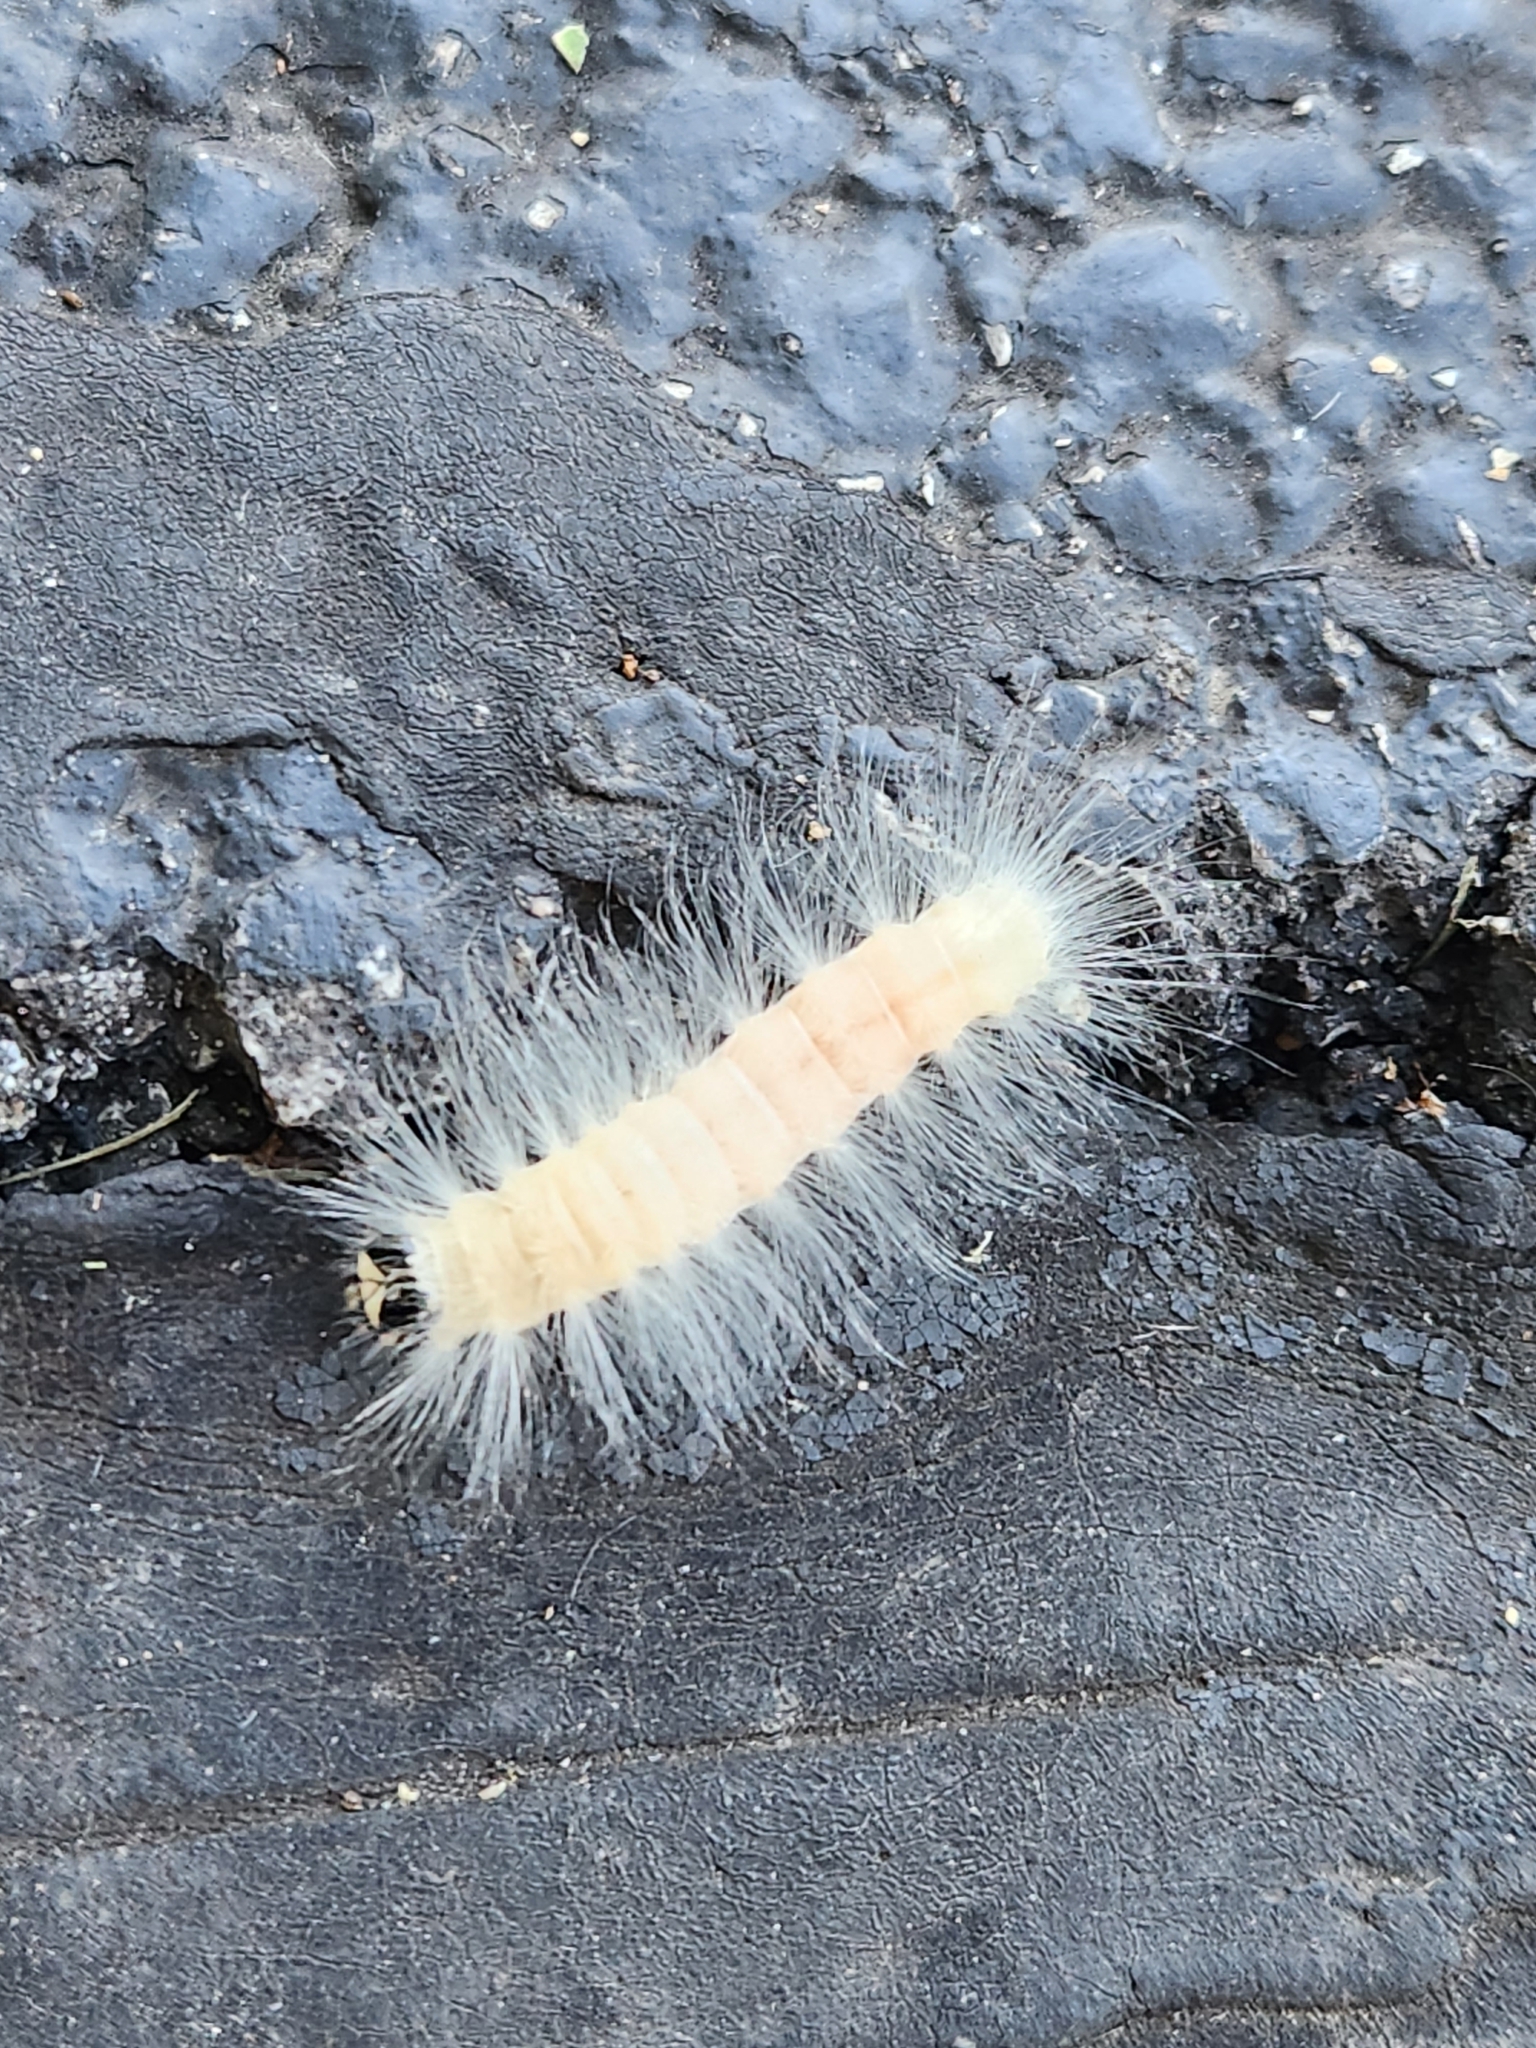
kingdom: Animalia
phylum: Arthropoda
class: Insecta
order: Lepidoptera
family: Noctuidae
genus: Charadra
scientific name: Charadra deridens
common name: Marbled tuffet
